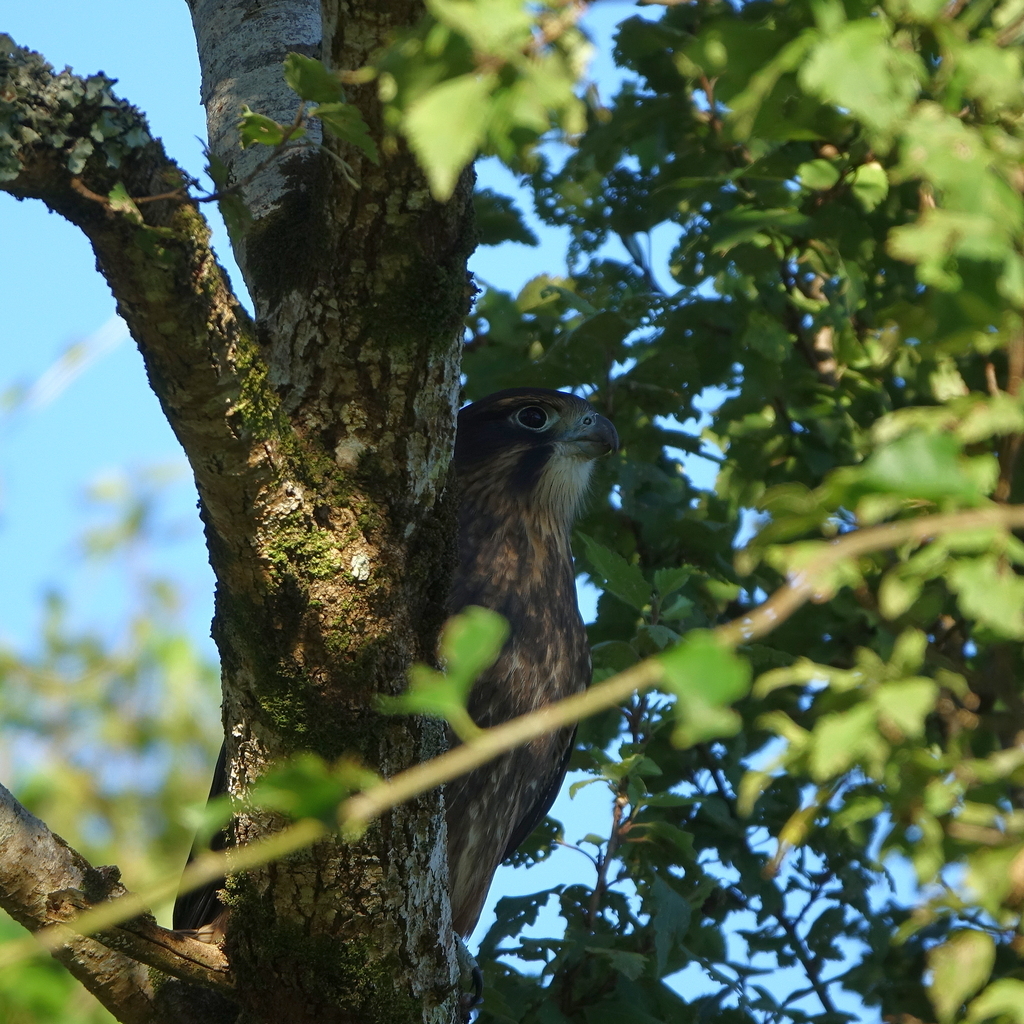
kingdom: Animalia
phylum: Chordata
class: Aves
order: Falconiformes
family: Falconidae
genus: Falco
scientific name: Falco novaeseelandiae
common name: New zealand falcon
